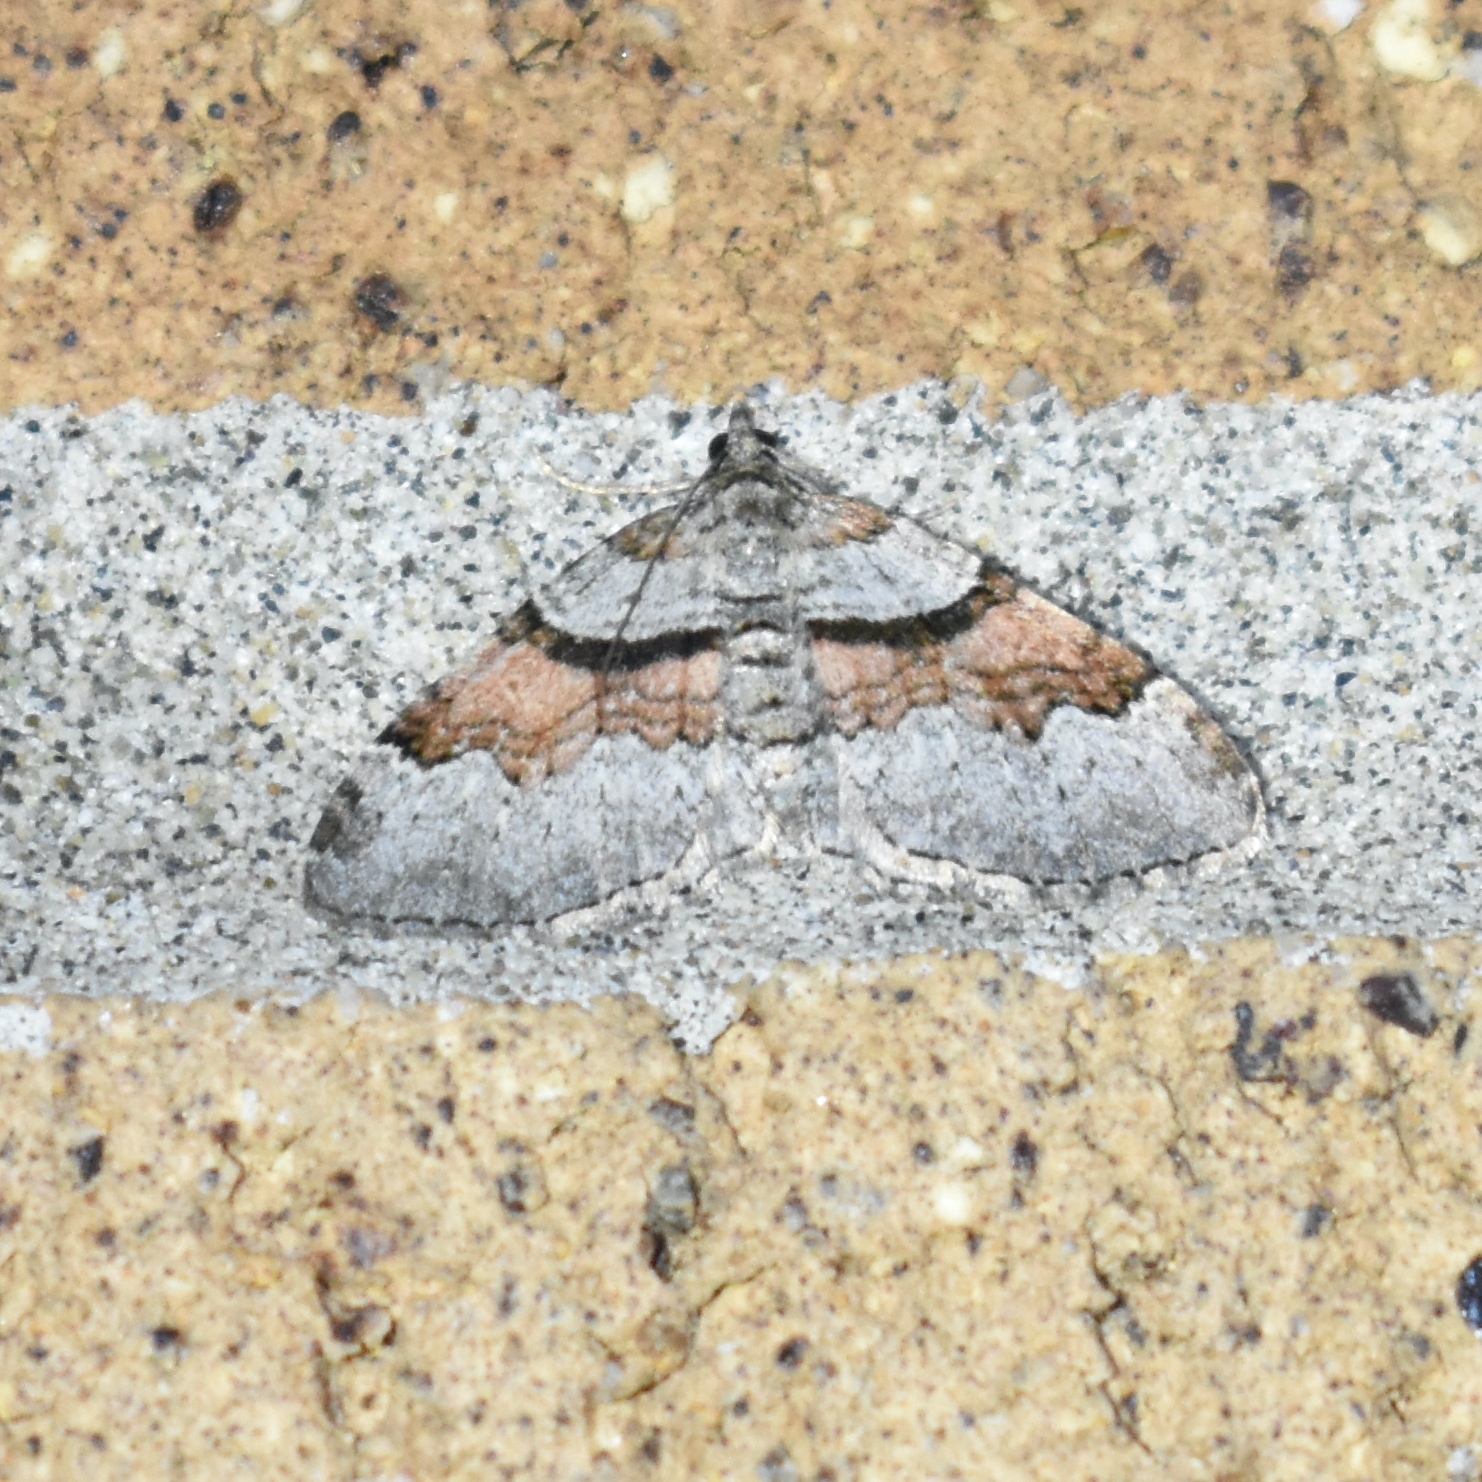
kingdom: Animalia
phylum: Arthropoda
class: Insecta
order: Lepidoptera
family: Geometridae
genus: Xanthorhoe
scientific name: Xanthorhoe labradorensis
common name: Labrador carpet
